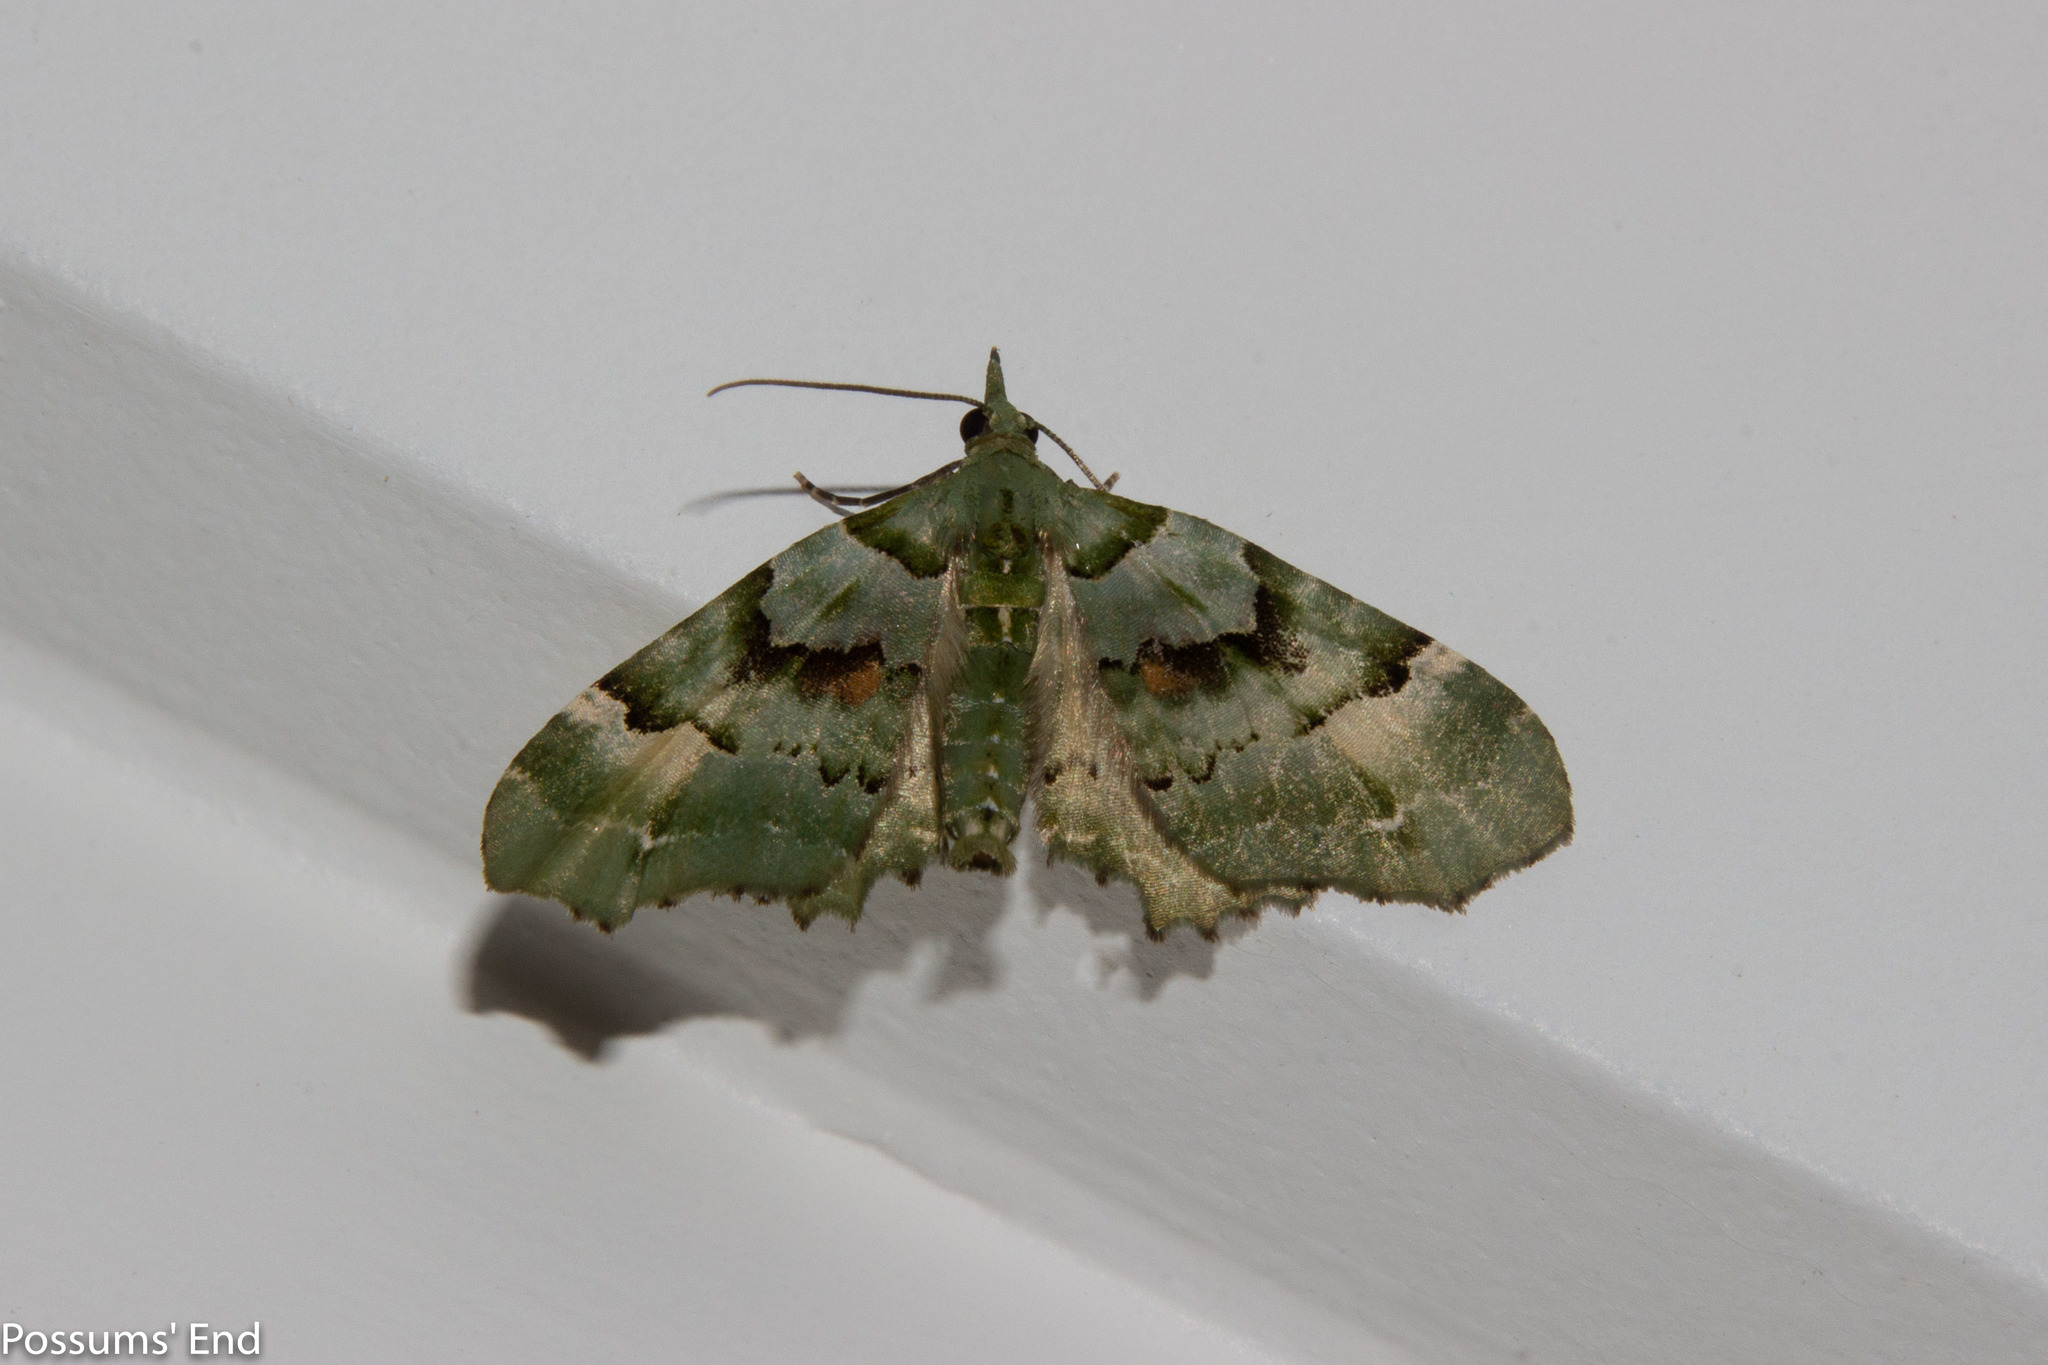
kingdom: Animalia
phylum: Arthropoda
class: Insecta
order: Lepidoptera
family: Geometridae
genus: Elvia
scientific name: Elvia glaucata
